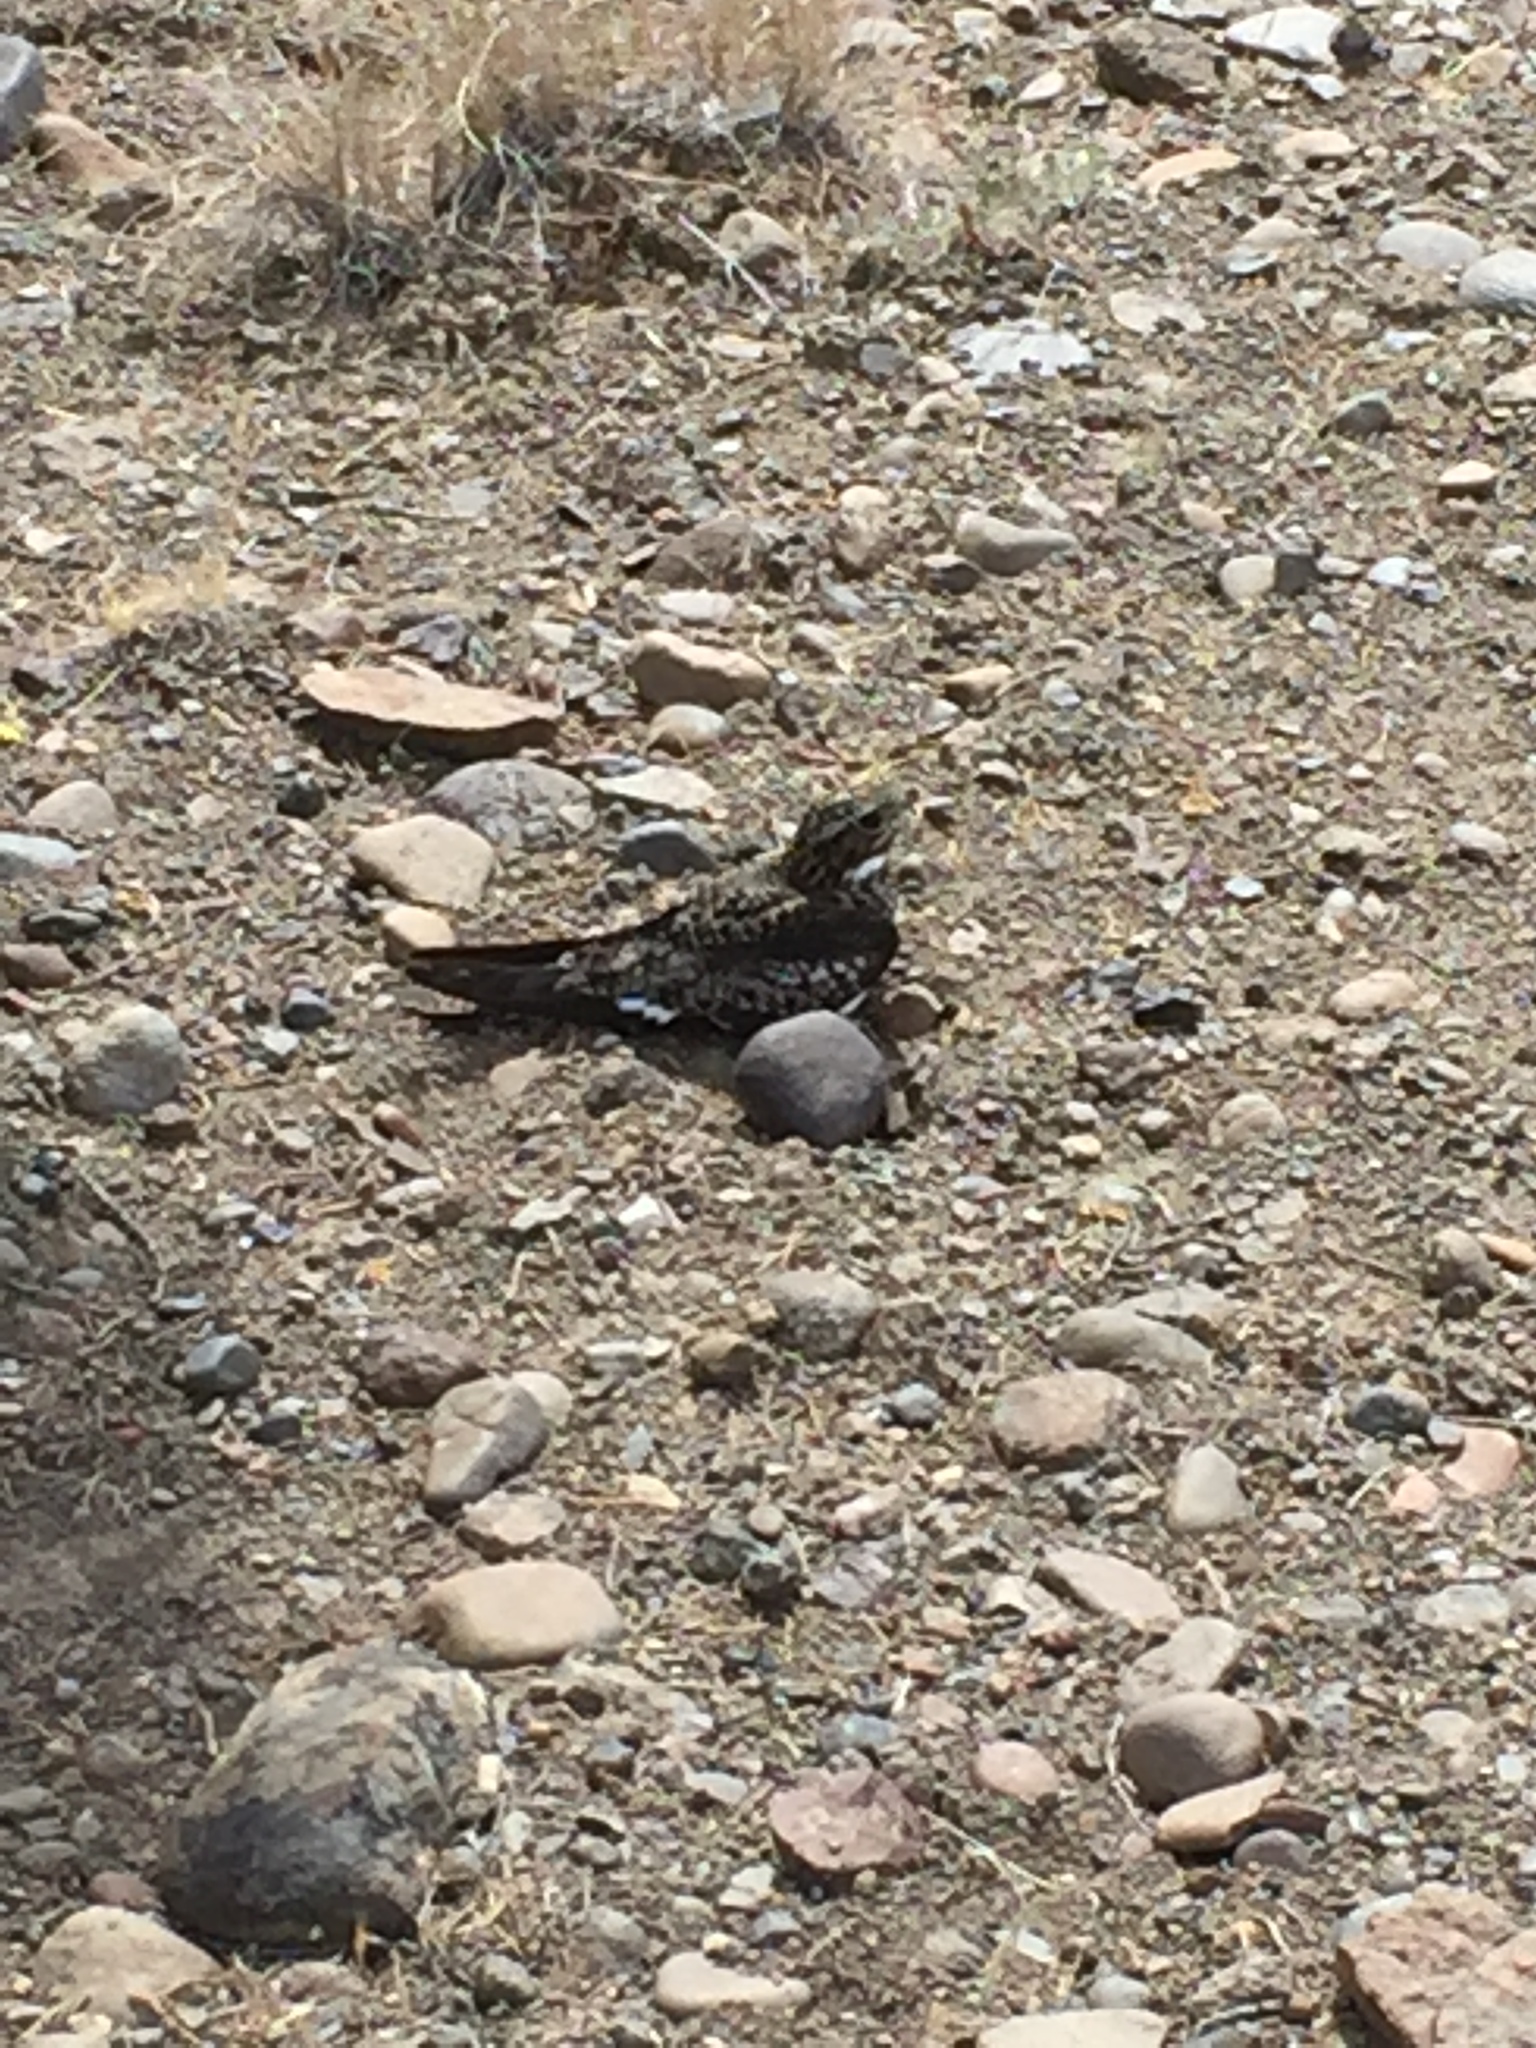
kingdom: Animalia
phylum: Chordata
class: Aves
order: Caprimulgiformes
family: Caprimulgidae
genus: Chordeiles
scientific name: Chordeiles minor
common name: Common nighthawk
